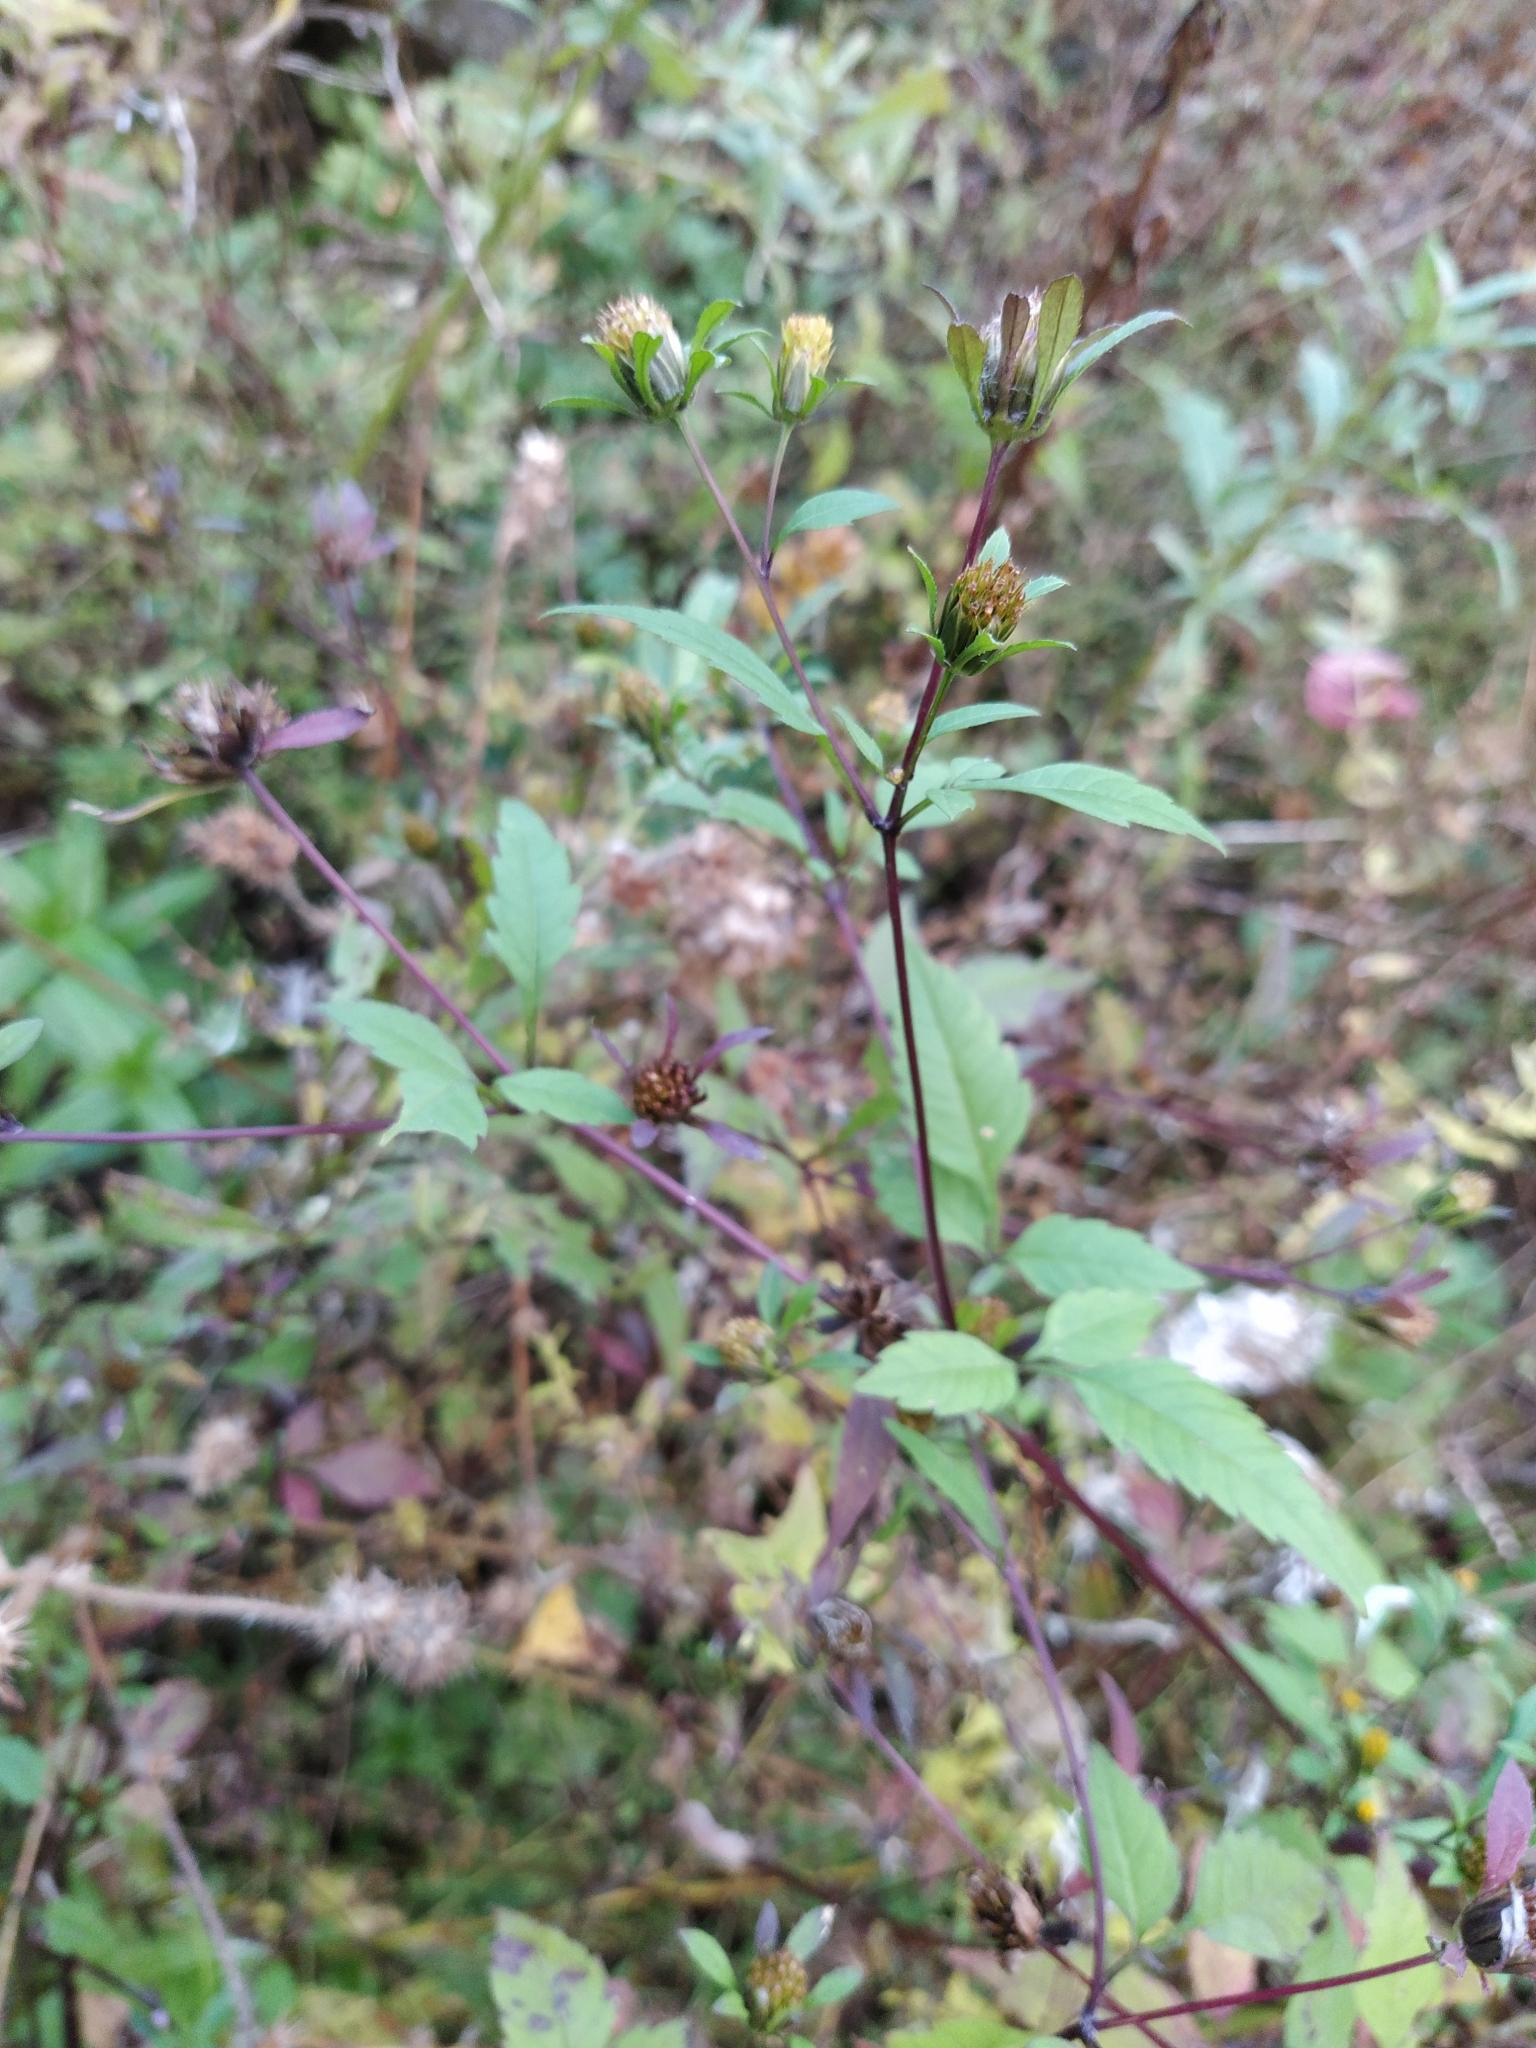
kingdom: Plantae
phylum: Tracheophyta
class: Magnoliopsida
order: Asterales
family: Asteraceae
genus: Bidens
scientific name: Bidens frondosa
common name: Beggarticks
